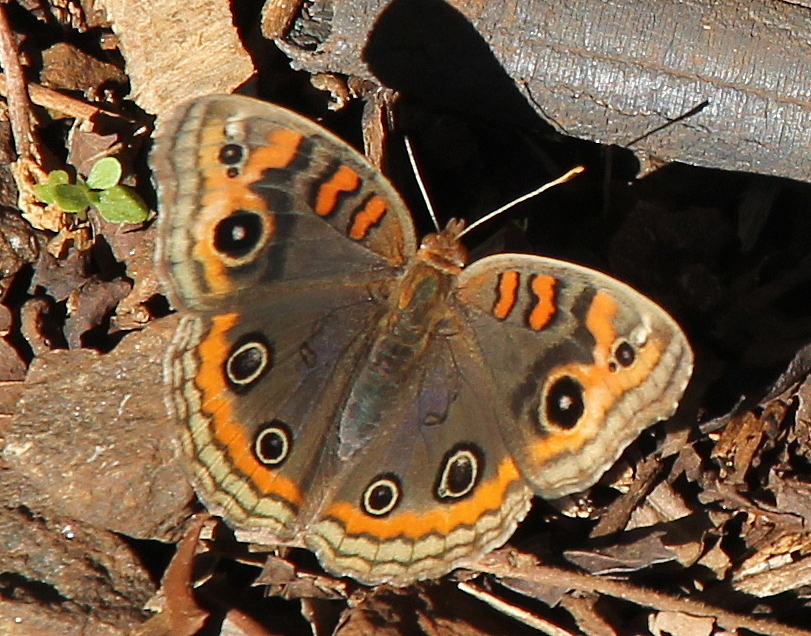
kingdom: Animalia
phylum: Arthropoda
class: Insecta
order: Lepidoptera
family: Nymphalidae
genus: Junonia
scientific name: Junonia lavinia
